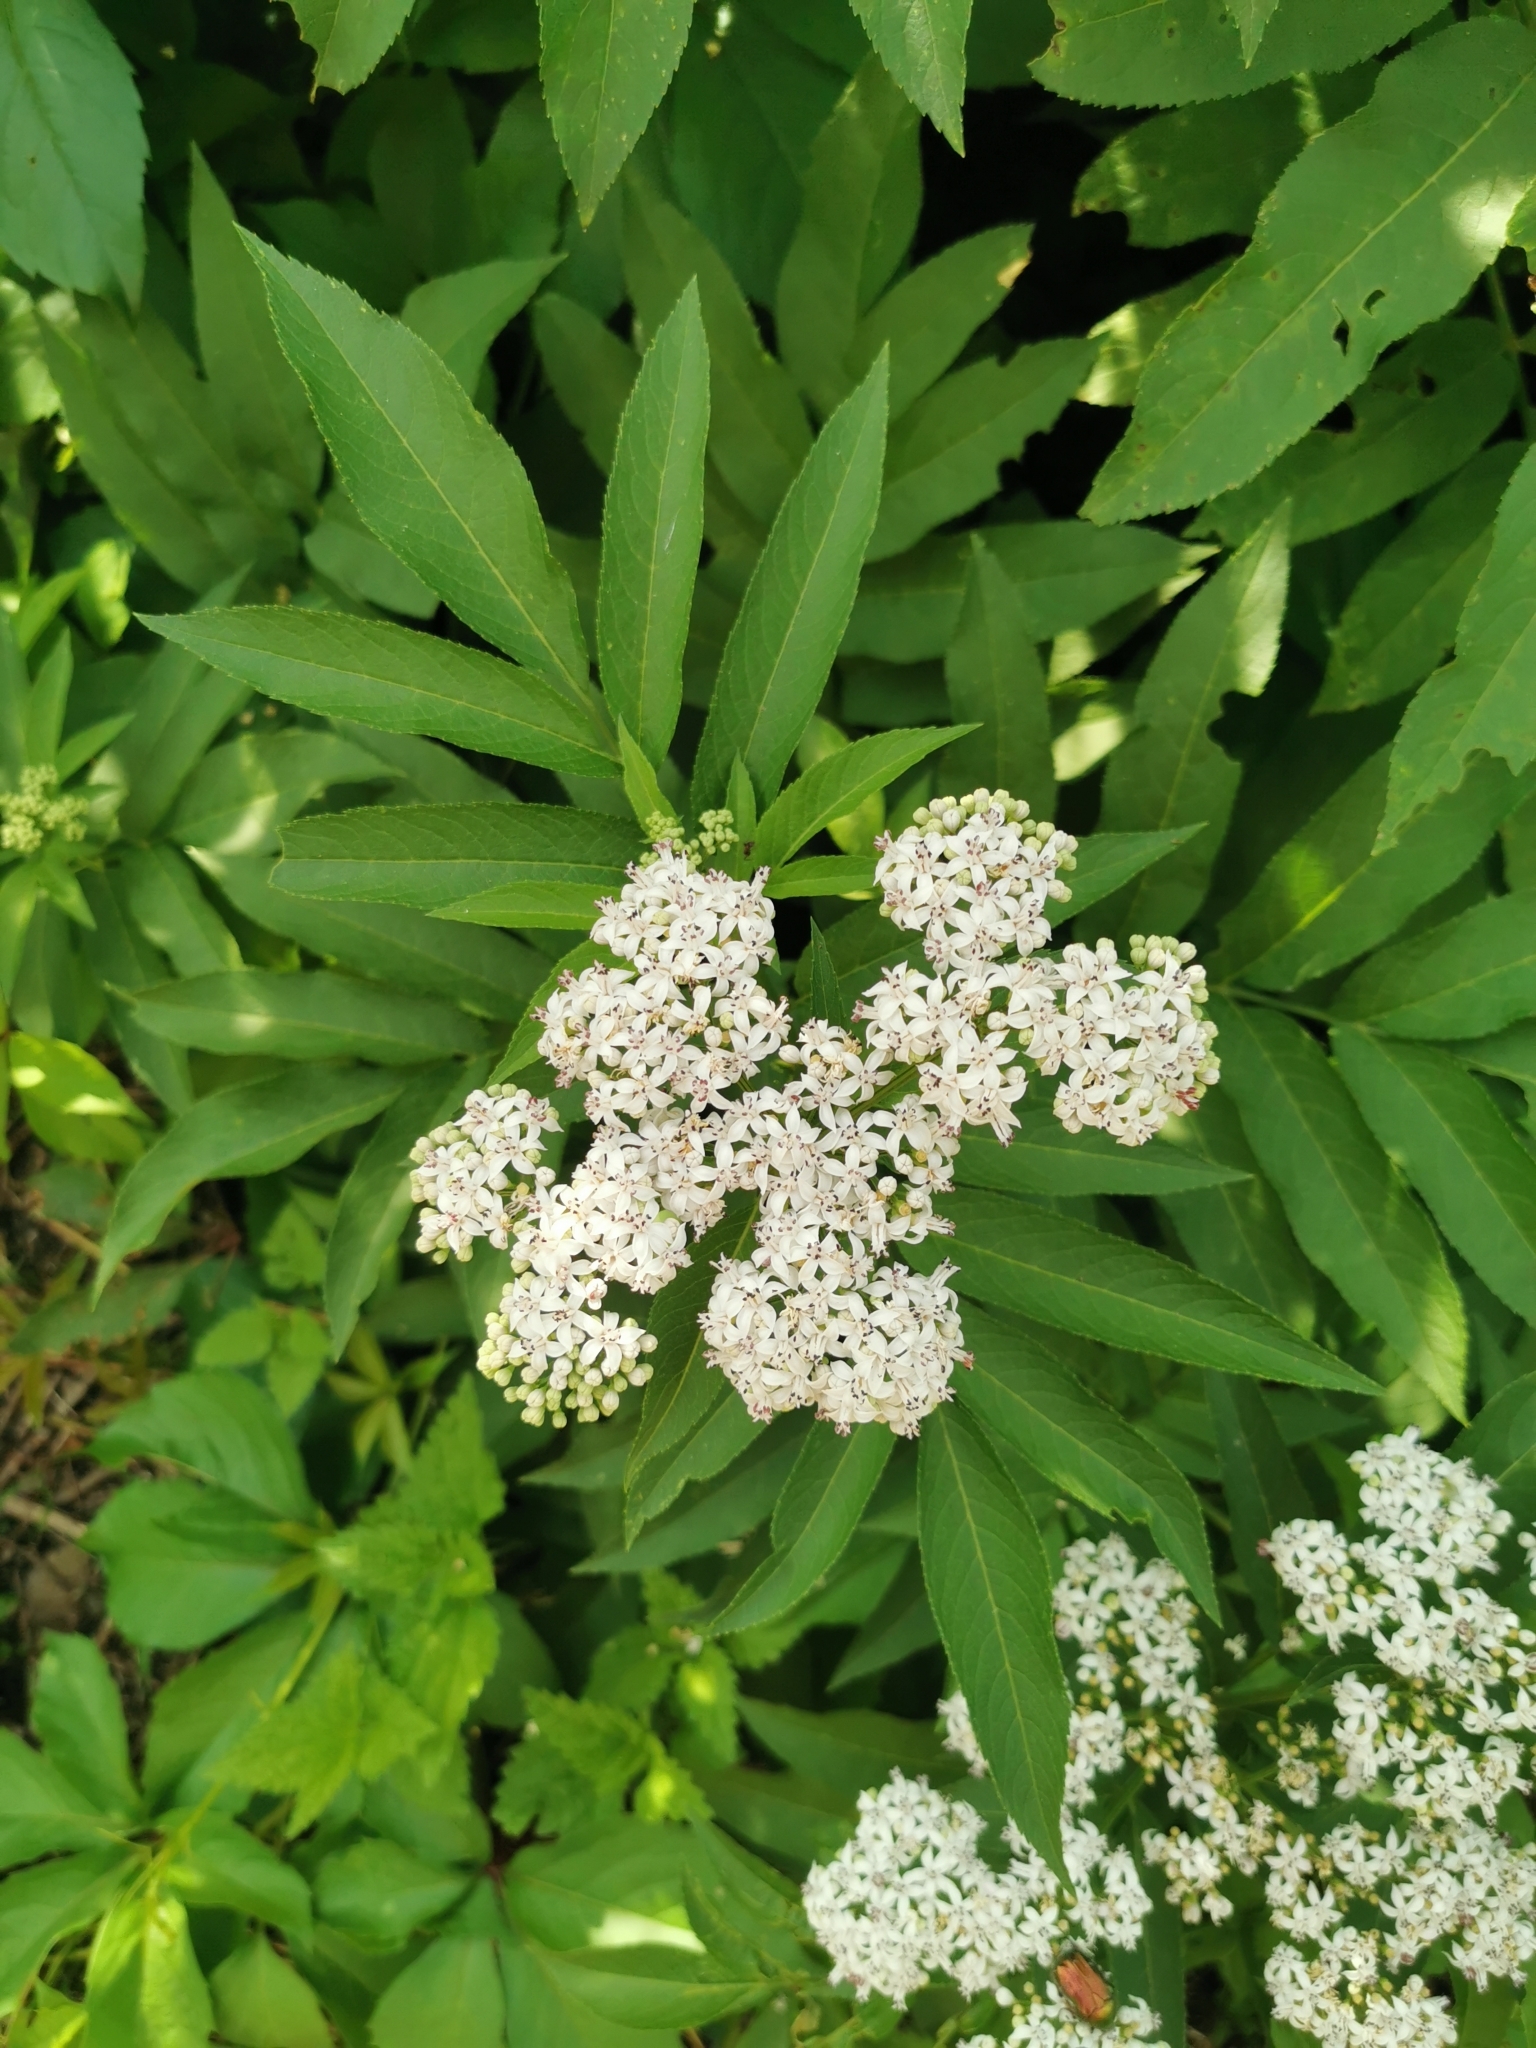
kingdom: Plantae
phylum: Tracheophyta
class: Magnoliopsida
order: Dipsacales
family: Viburnaceae
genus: Sambucus
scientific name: Sambucus ebulus
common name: Dwarf elder
